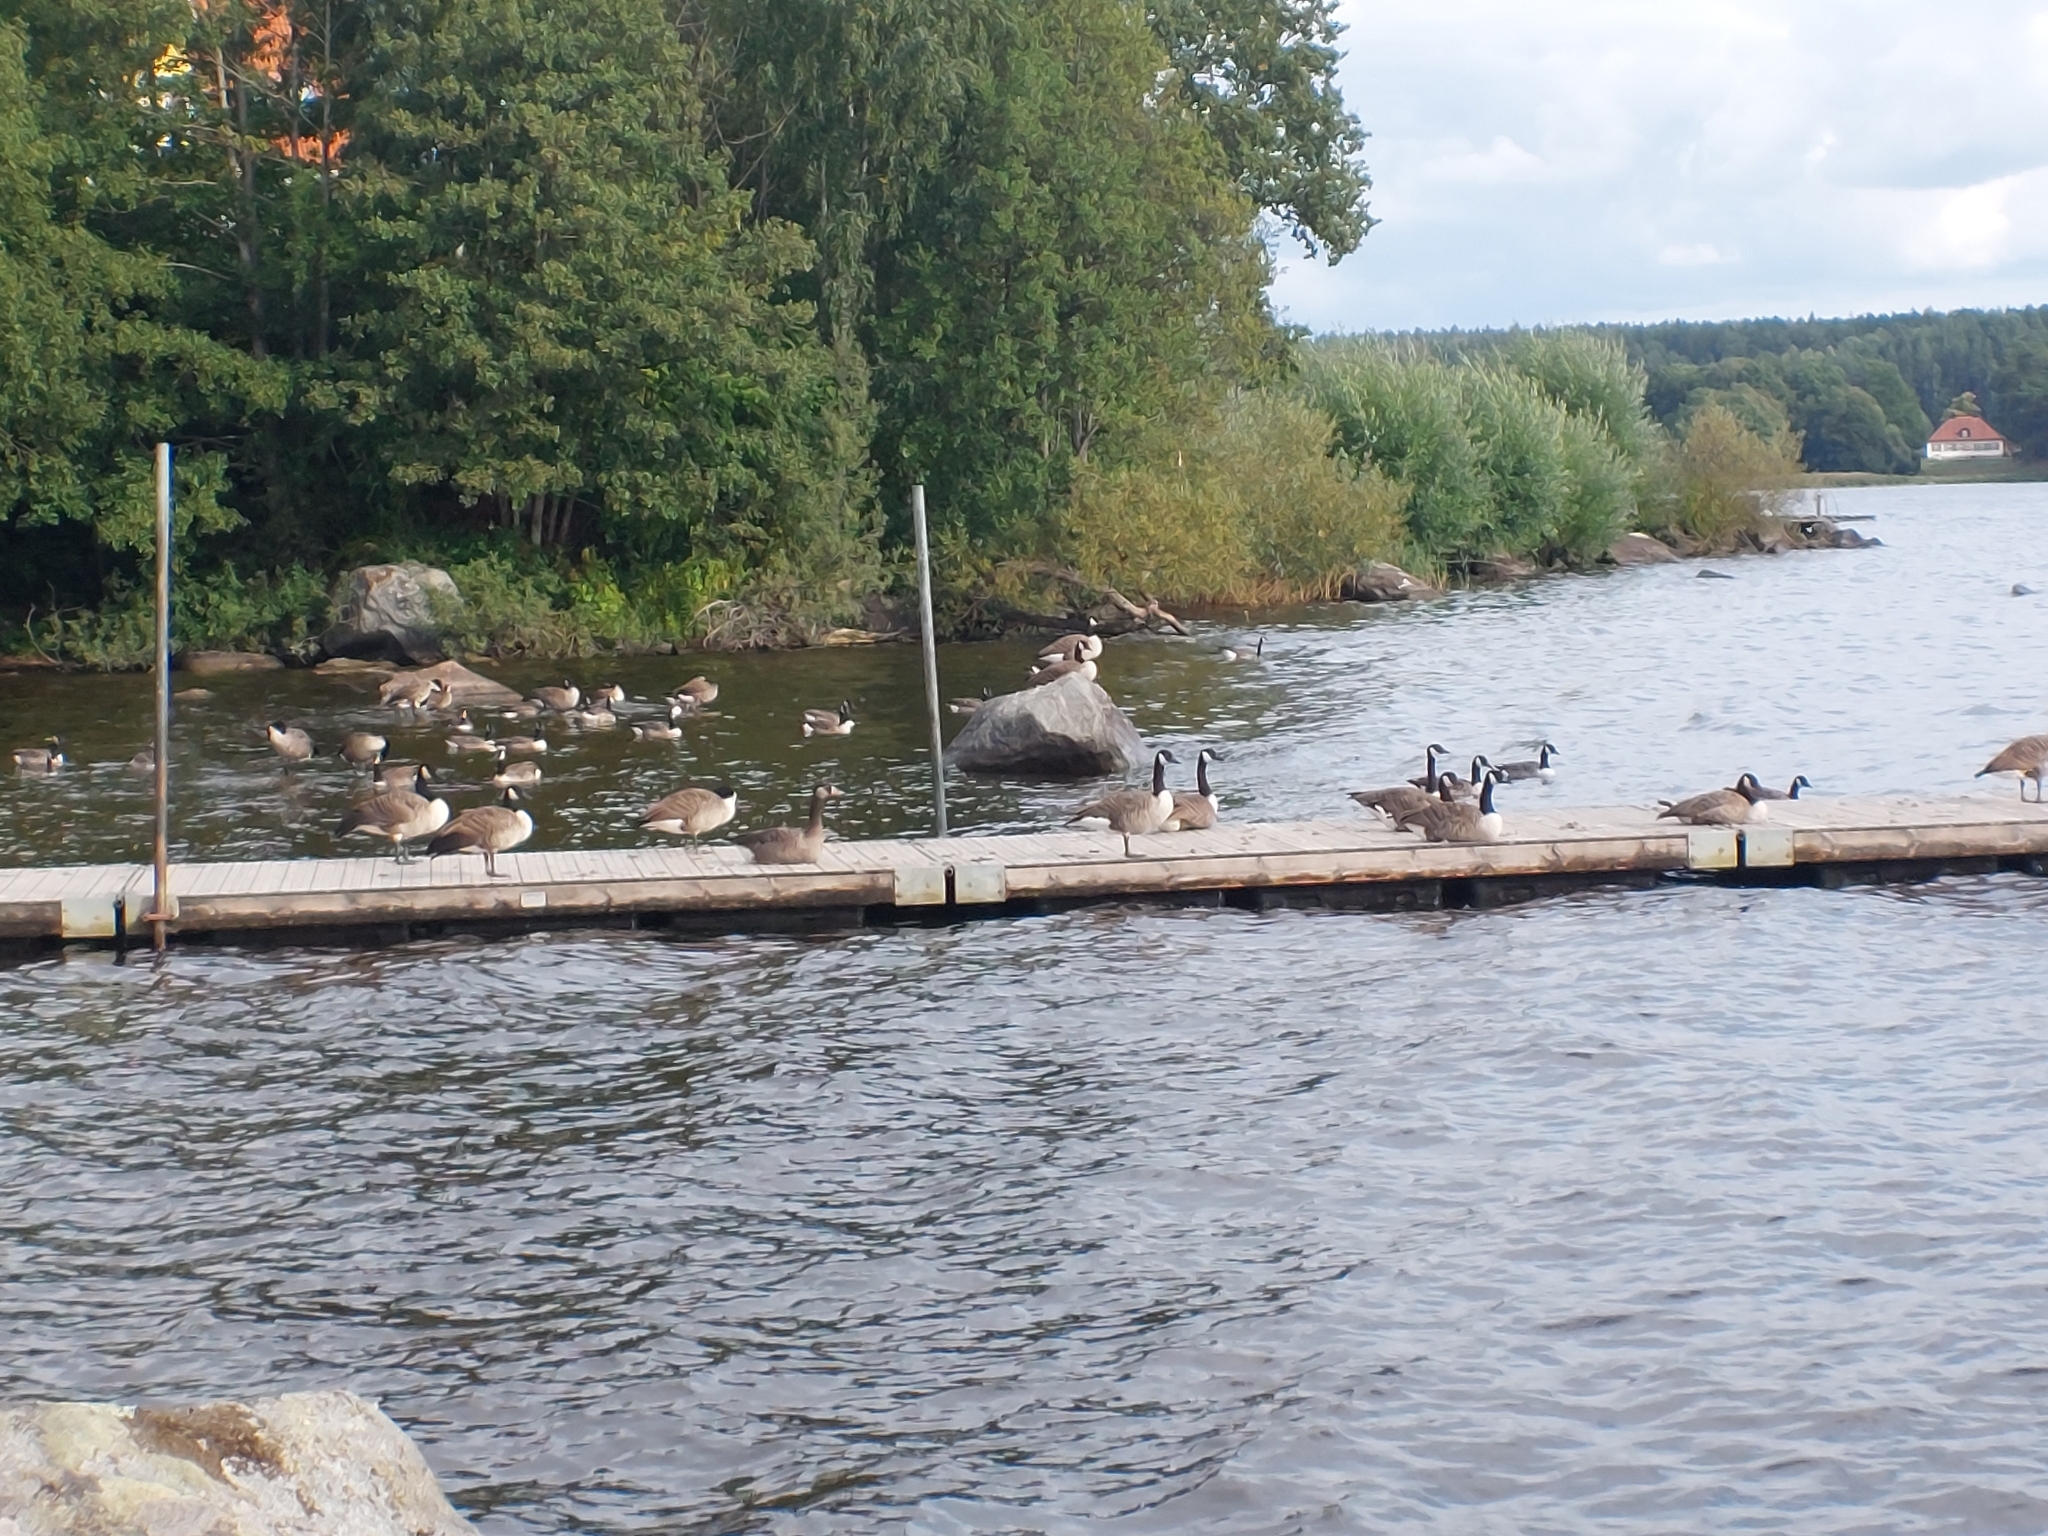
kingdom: Animalia
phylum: Chordata
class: Aves
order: Anseriformes
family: Anatidae
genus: Branta
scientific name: Branta canadensis
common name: Canada goose
